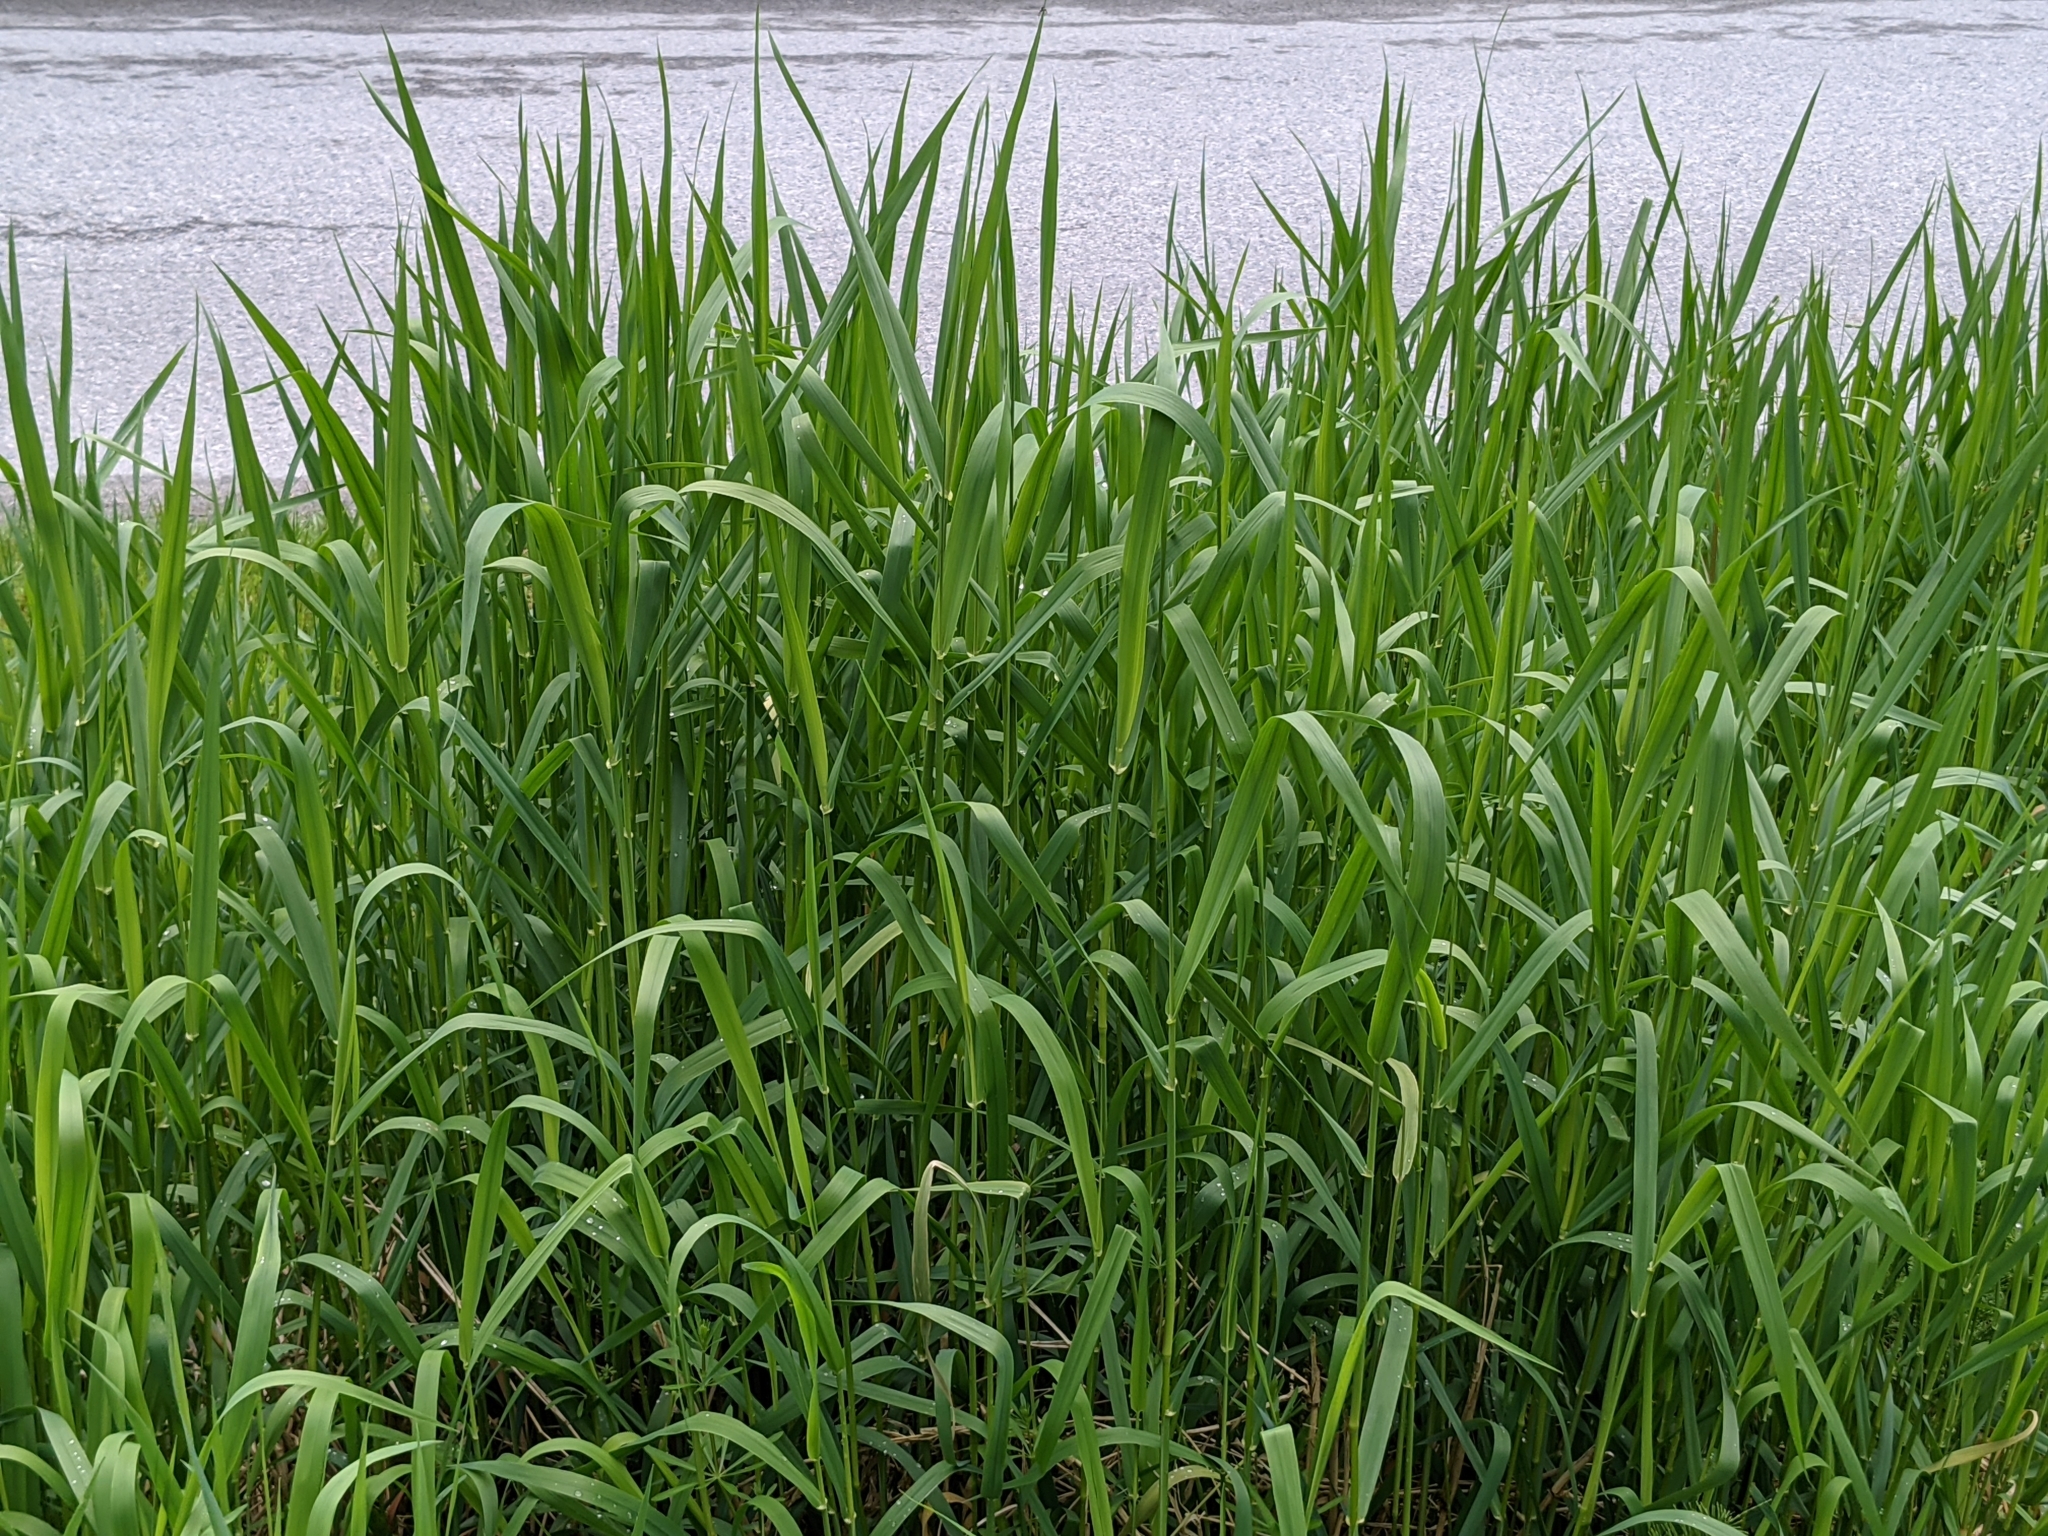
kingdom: Plantae
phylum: Tracheophyta
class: Liliopsida
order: Poales
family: Poaceae
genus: Phalaris
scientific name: Phalaris arundinacea
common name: Reed canary-grass
